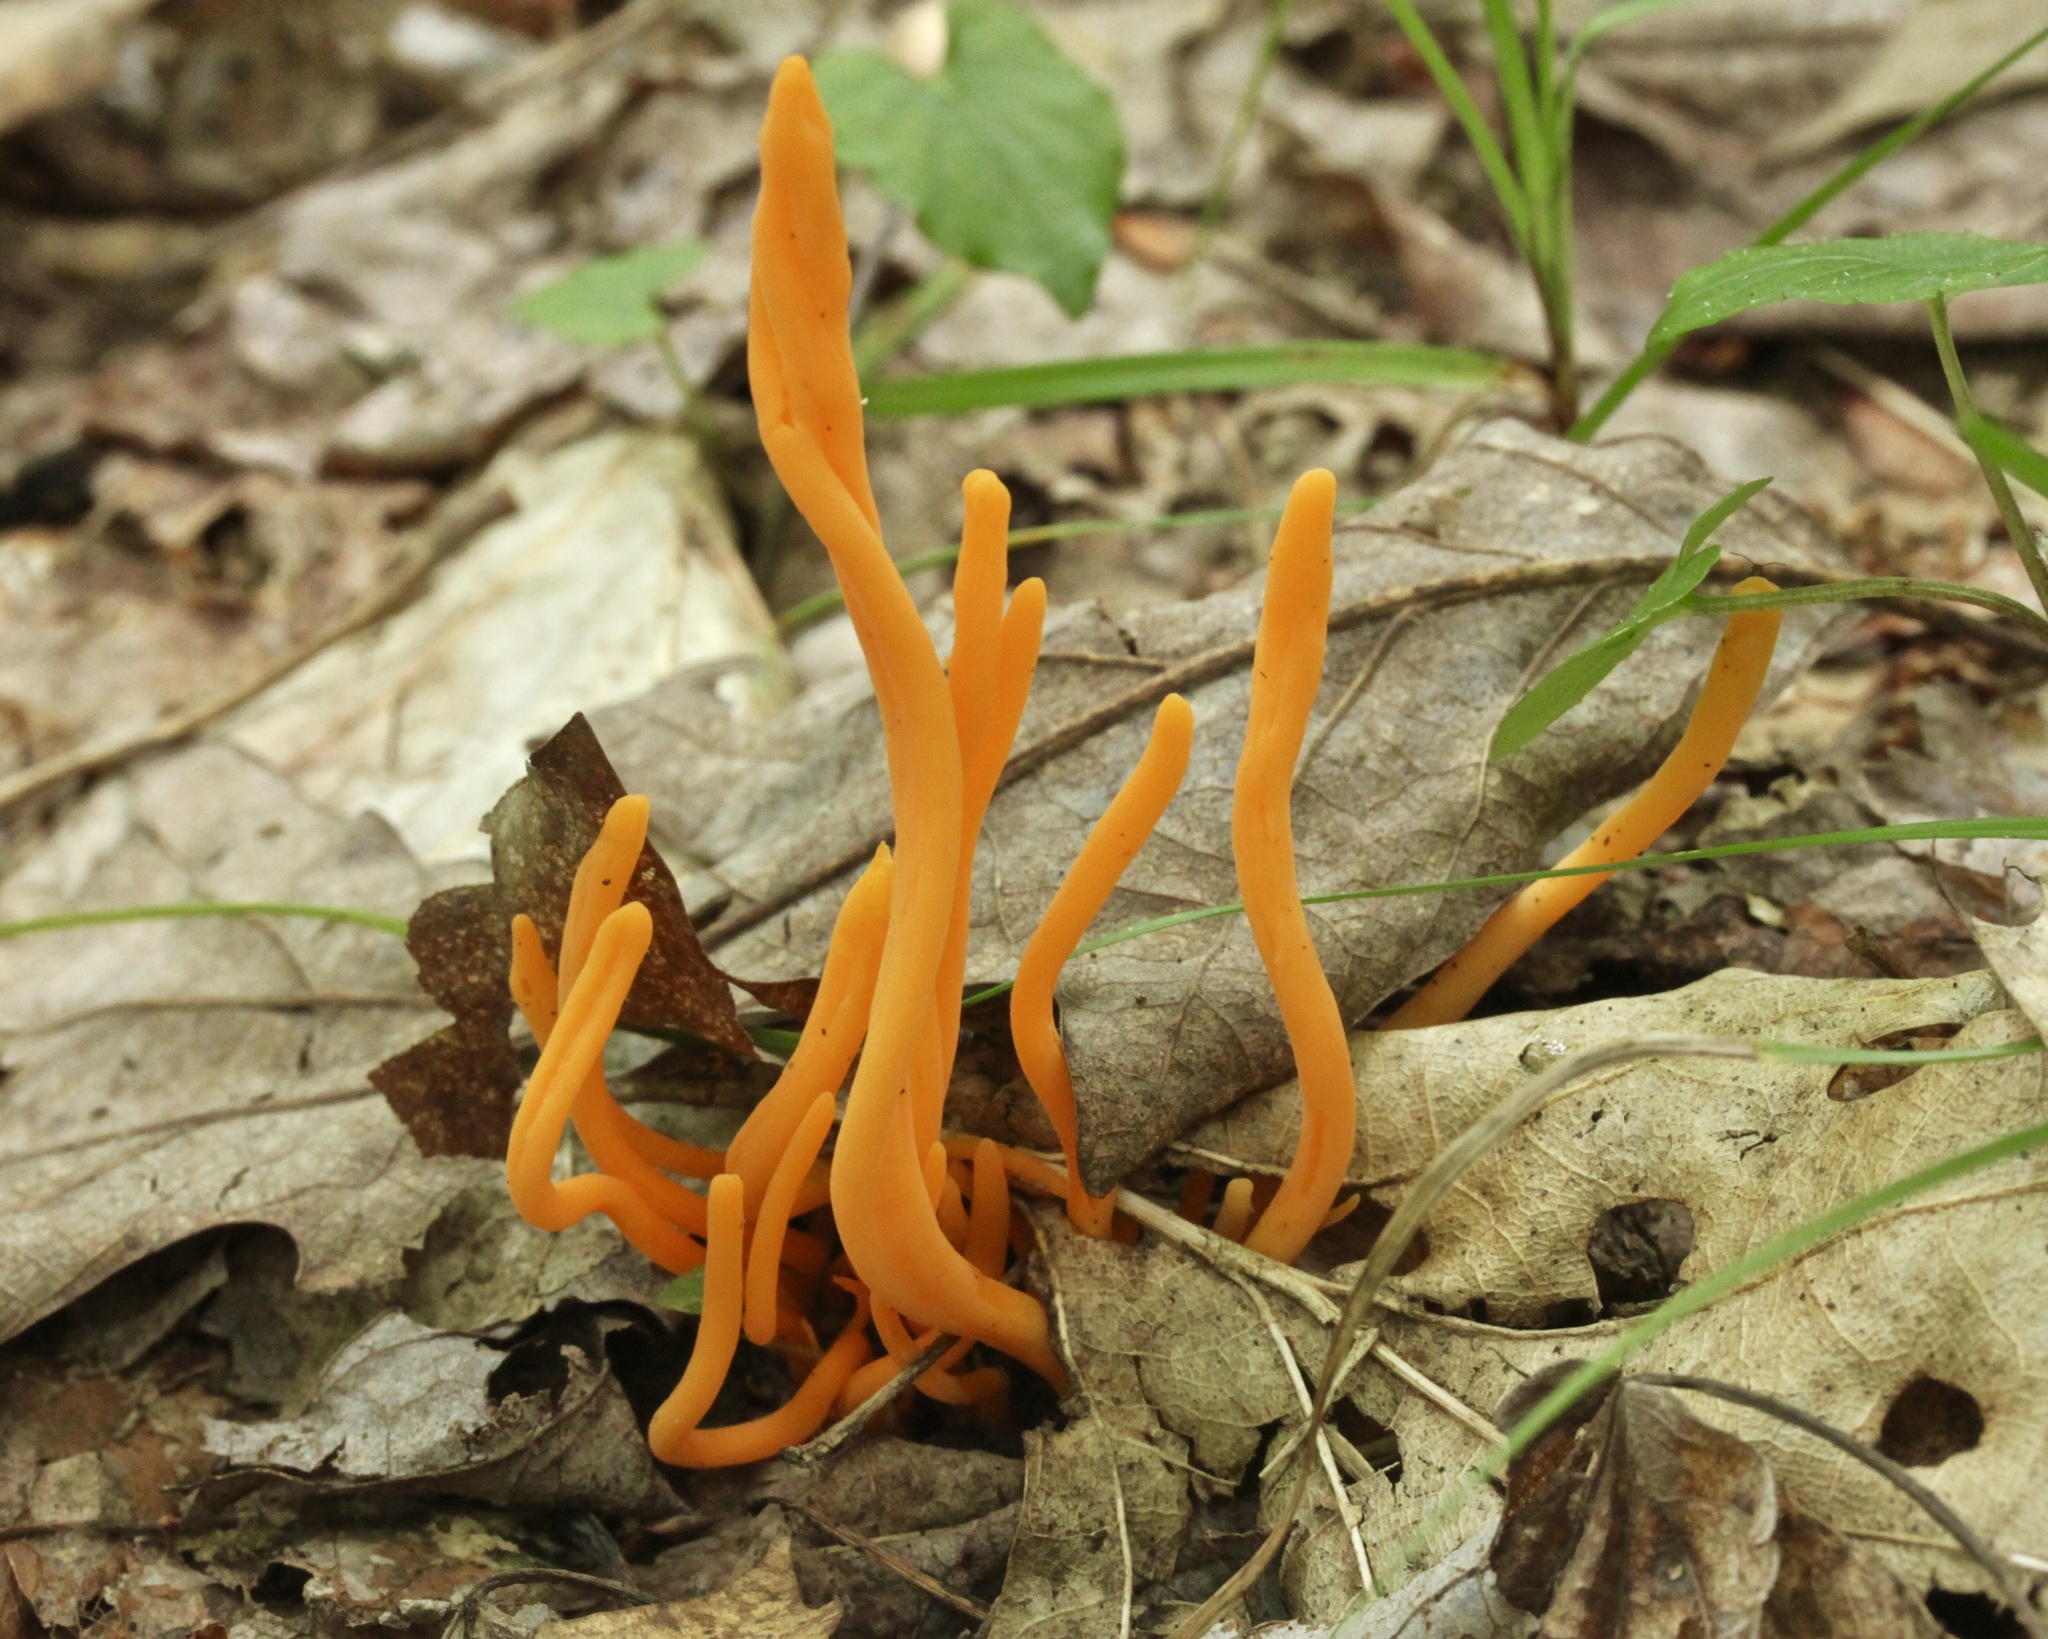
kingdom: Fungi
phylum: Basidiomycota
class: Agaricomycetes
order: Agaricales
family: Clavariaceae
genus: Clavulinopsis
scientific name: Clavulinopsis aurantiocinnabarina
